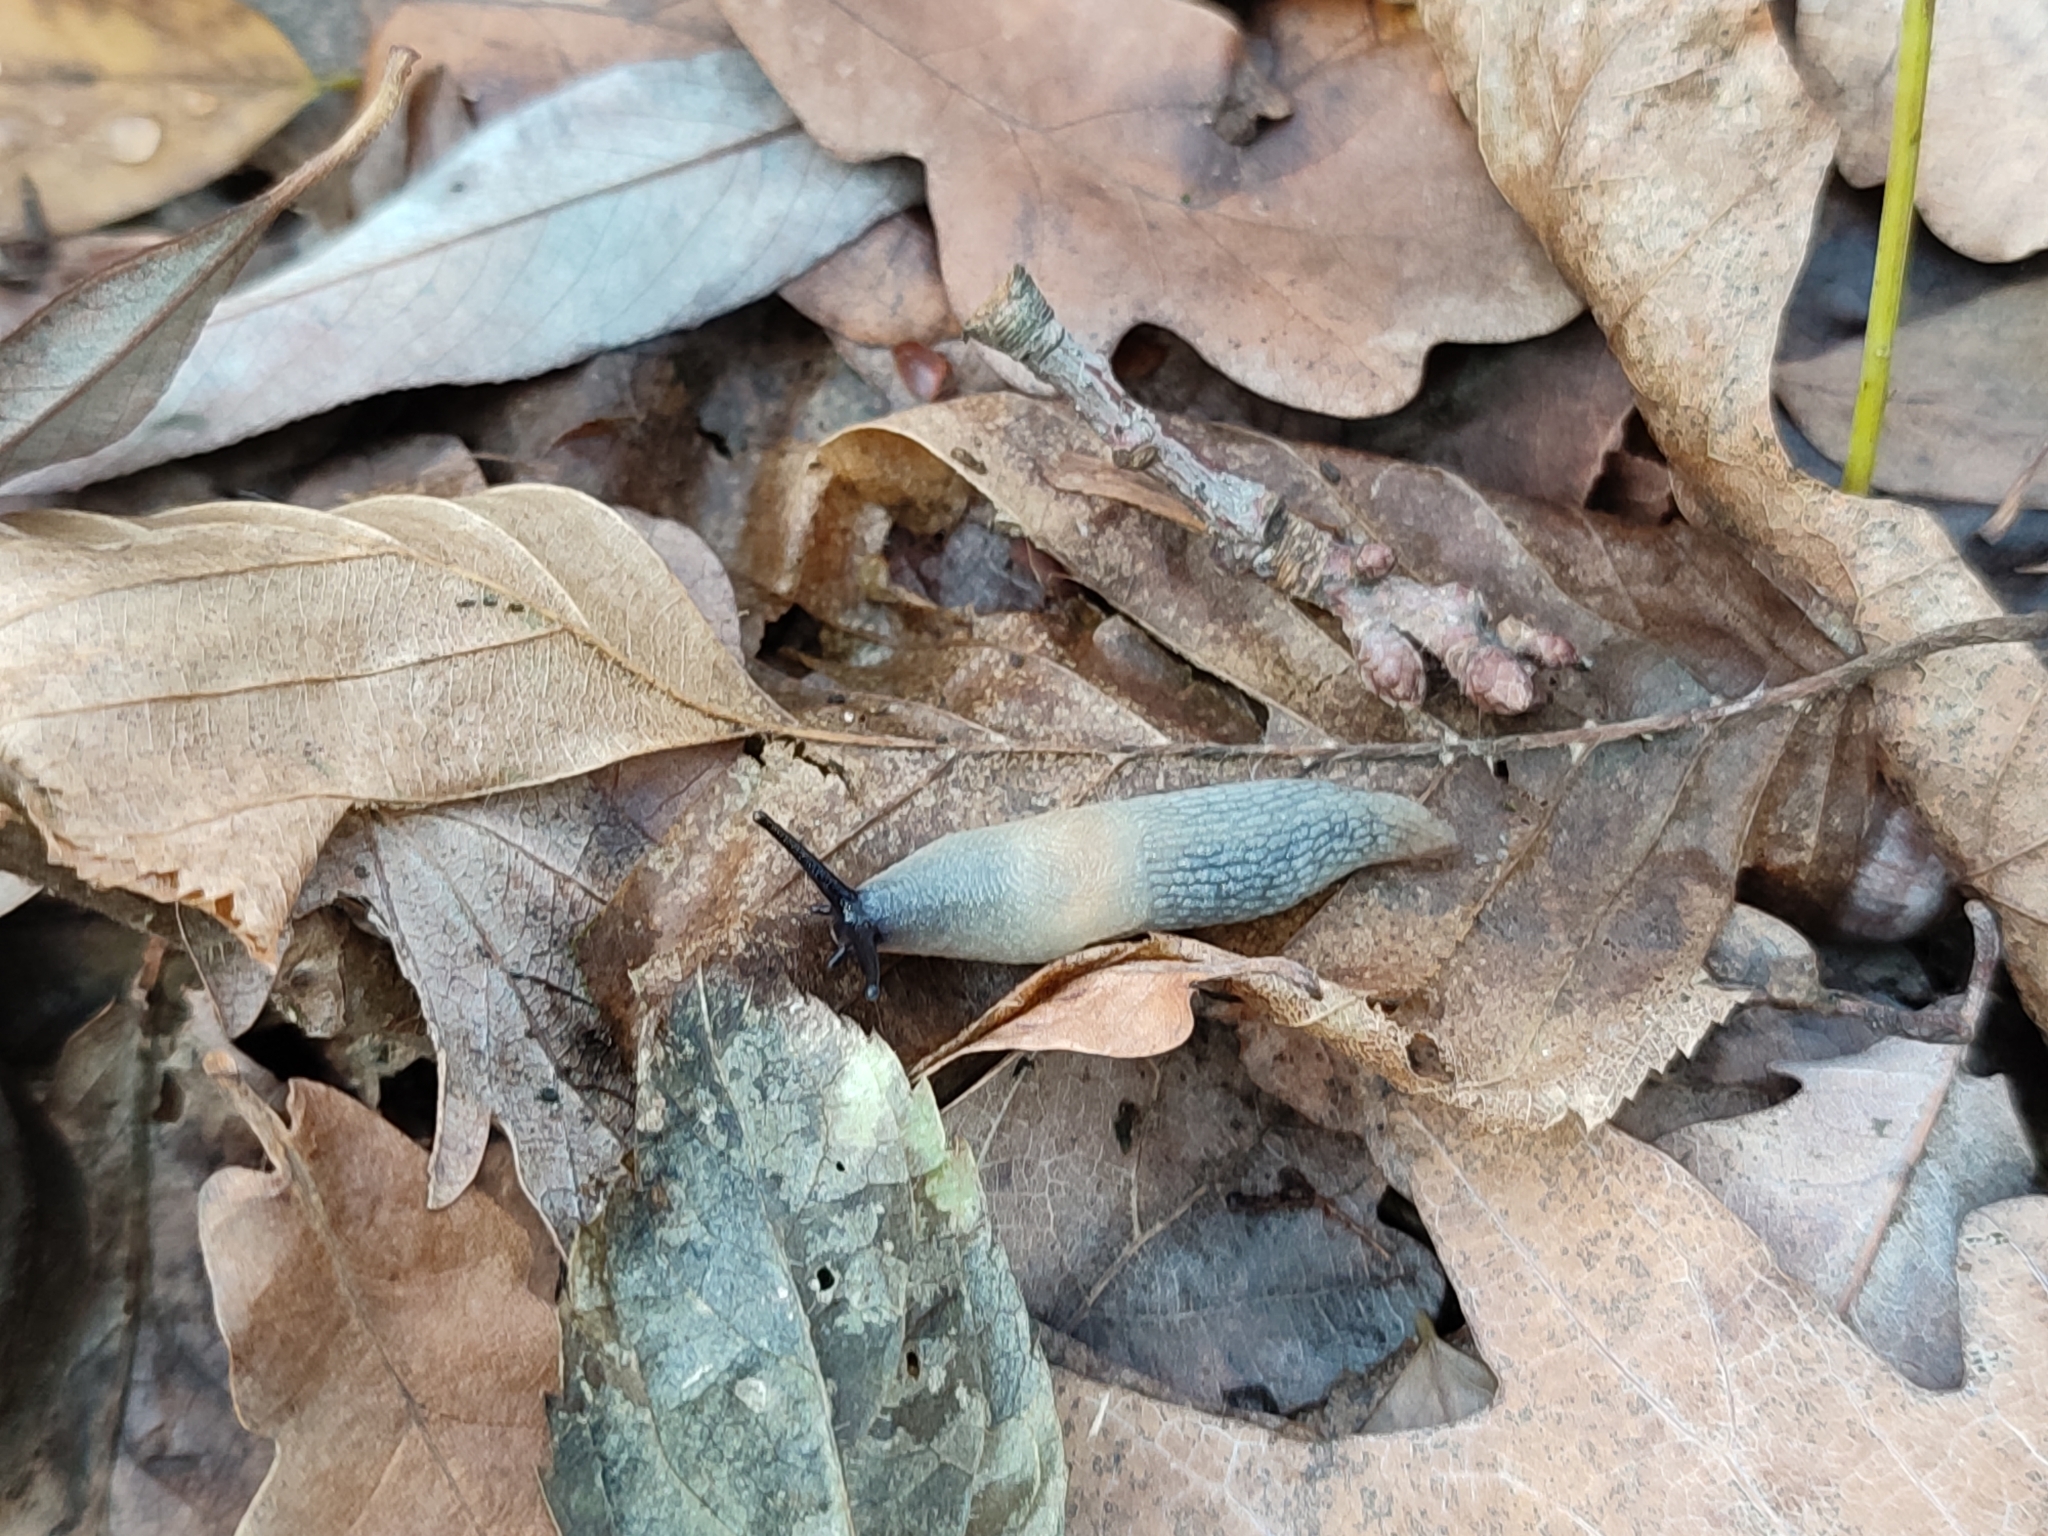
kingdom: Animalia
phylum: Mollusca
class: Gastropoda
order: Stylommatophora
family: Agriolimacidae
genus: Krynickillus
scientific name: Krynickillus melanocephalus
